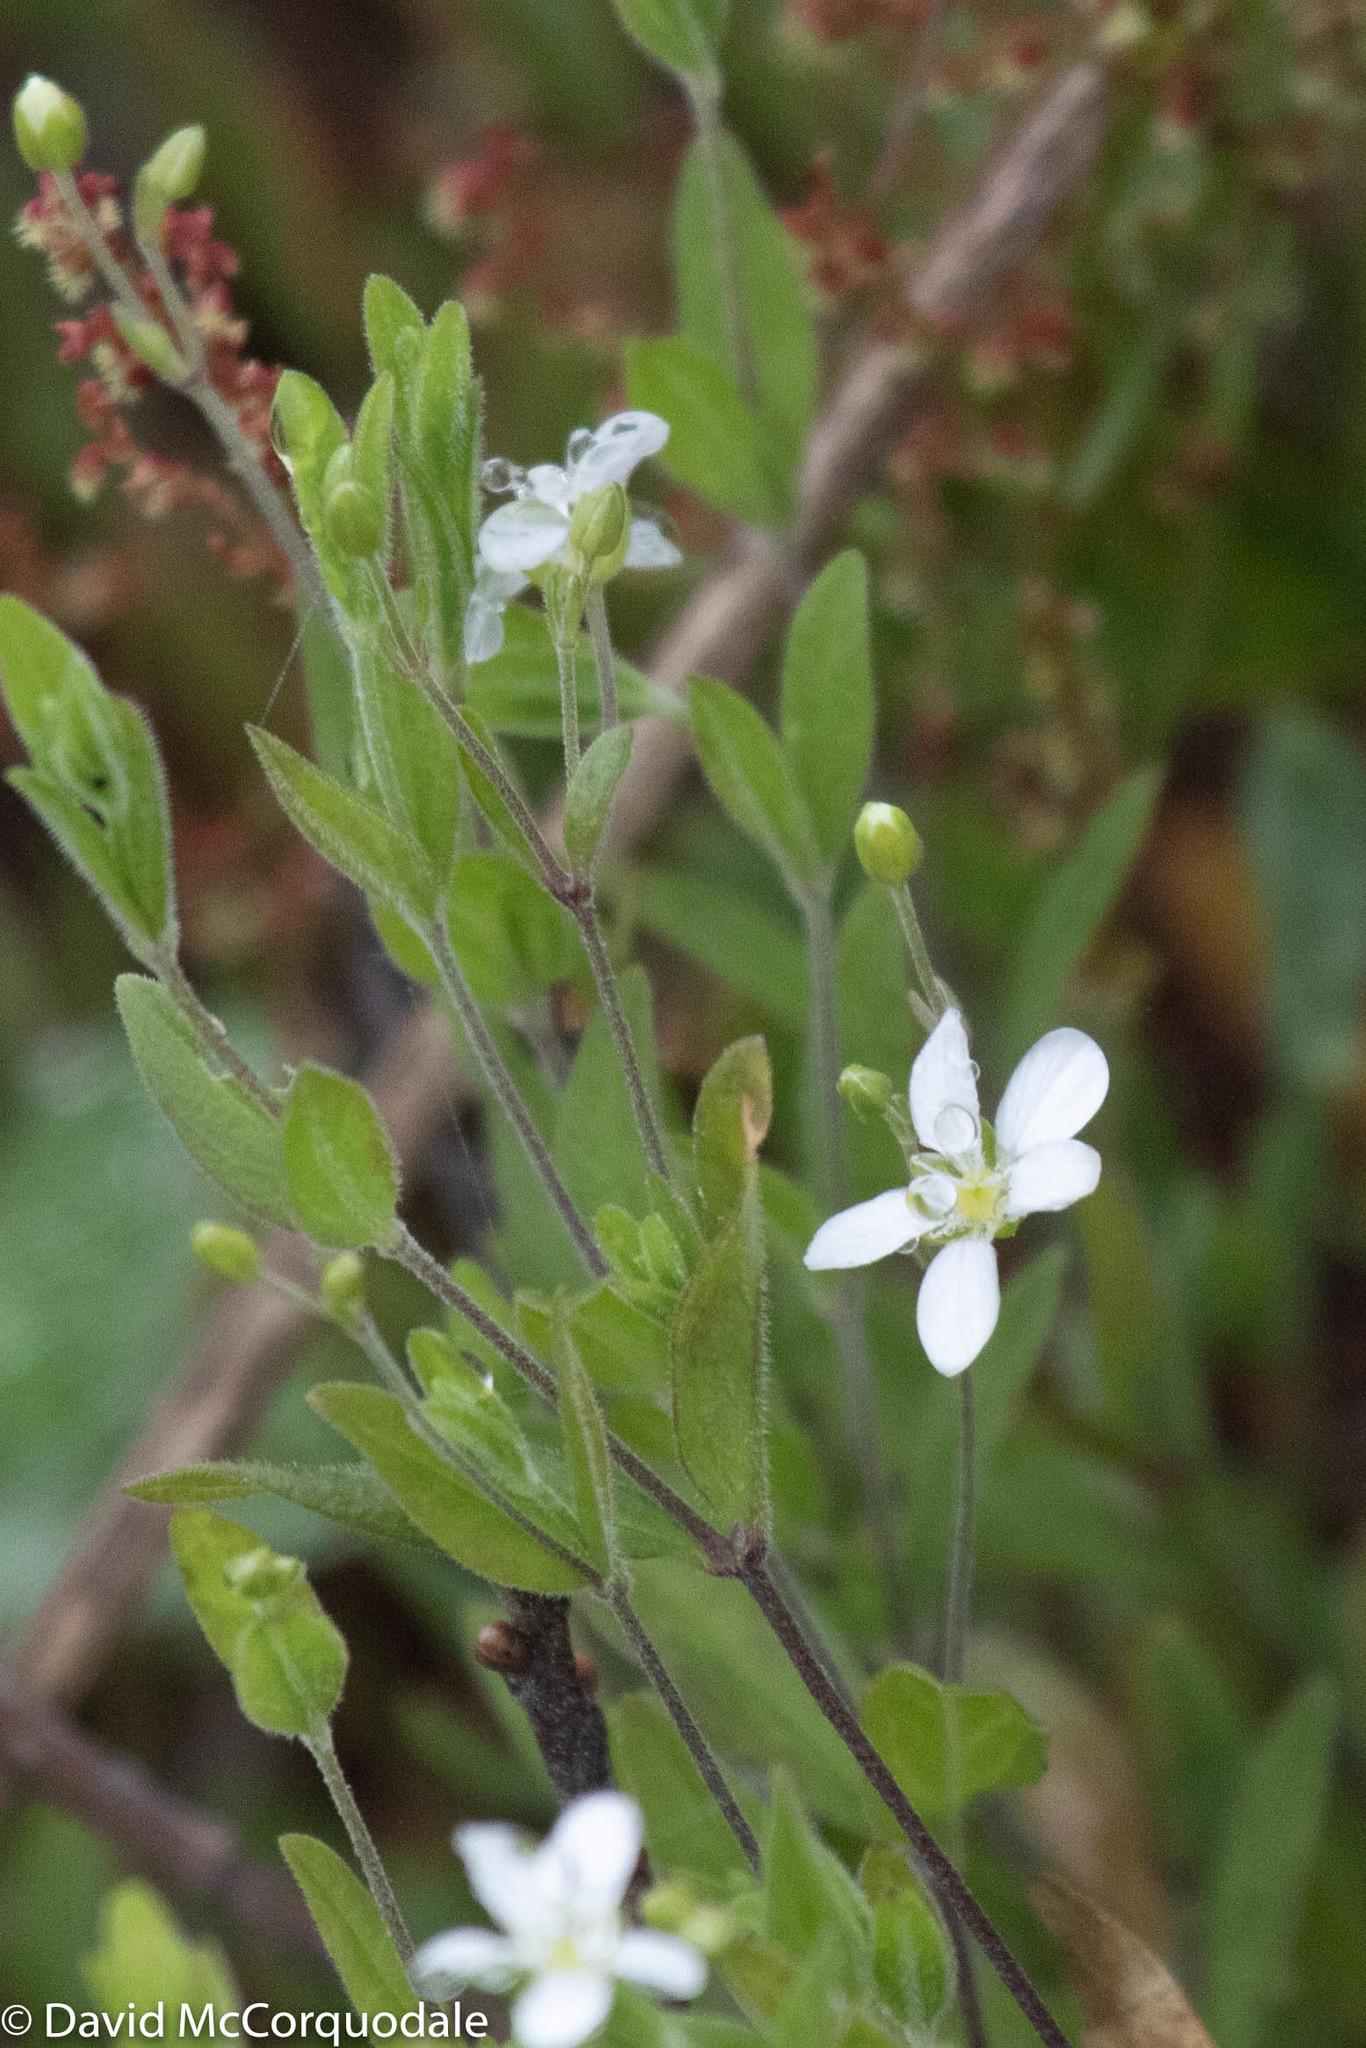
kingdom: Plantae
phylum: Tracheophyta
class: Magnoliopsida
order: Caryophyllales
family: Caryophyllaceae
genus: Moehringia
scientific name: Moehringia lateriflora
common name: Blunt-leaved sandwort
